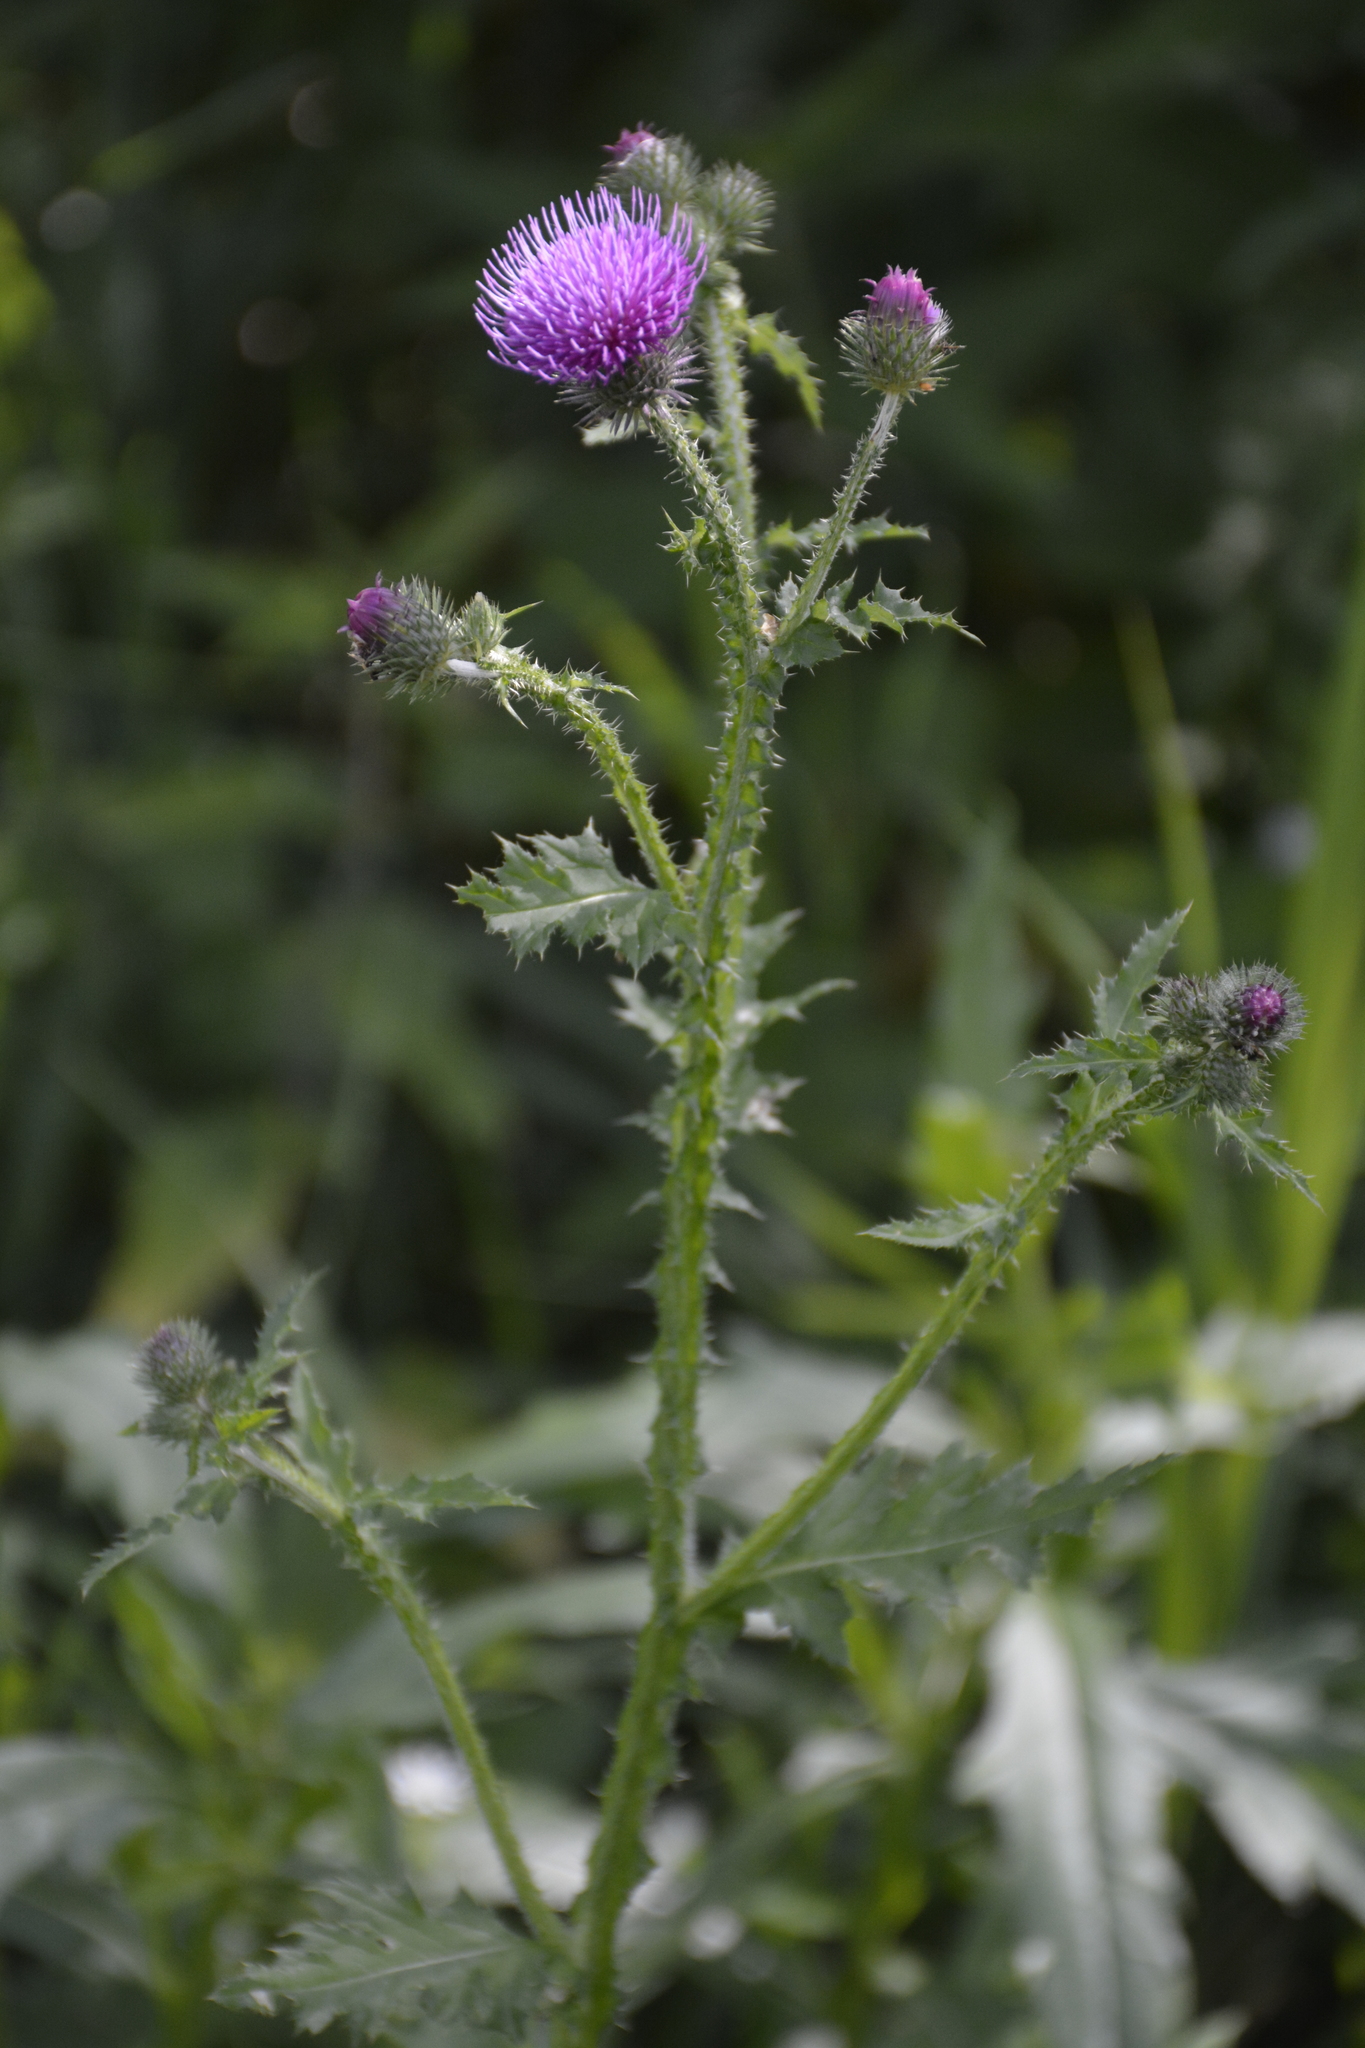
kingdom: Plantae
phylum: Tracheophyta
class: Magnoliopsida
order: Asterales
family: Asteraceae
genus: Carduus
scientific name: Carduus crispus
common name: Welted thistle
